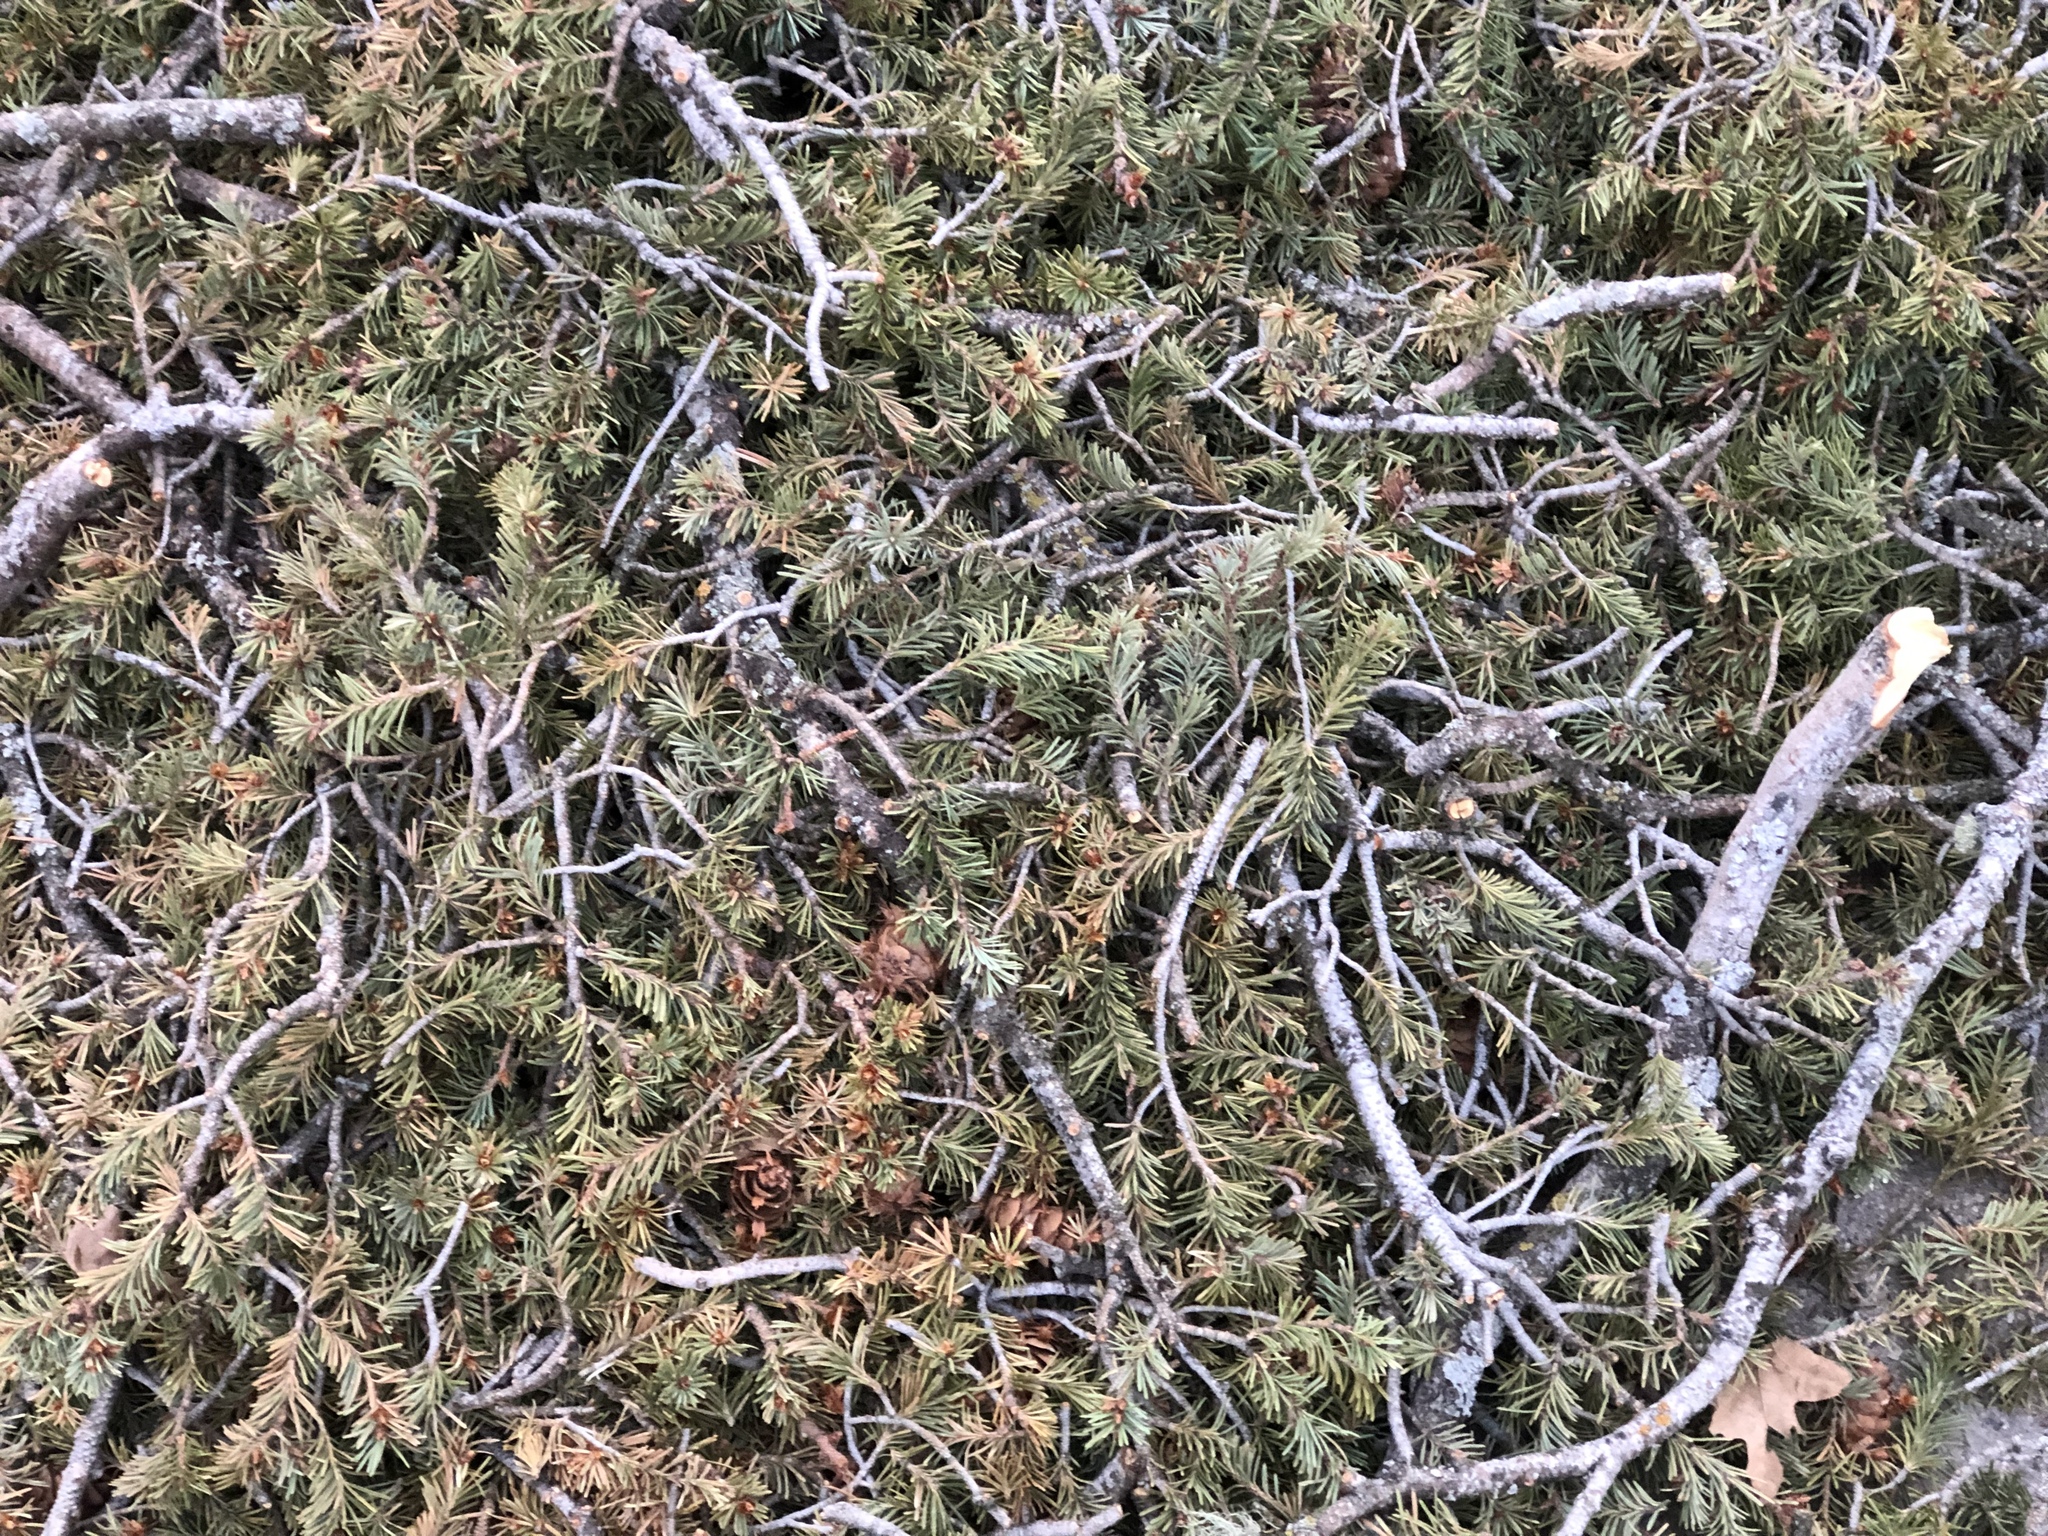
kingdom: Plantae
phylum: Tracheophyta
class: Pinopsida
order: Pinales
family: Pinaceae
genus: Pseudotsuga
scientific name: Pseudotsuga menziesii
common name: Douglas fir
